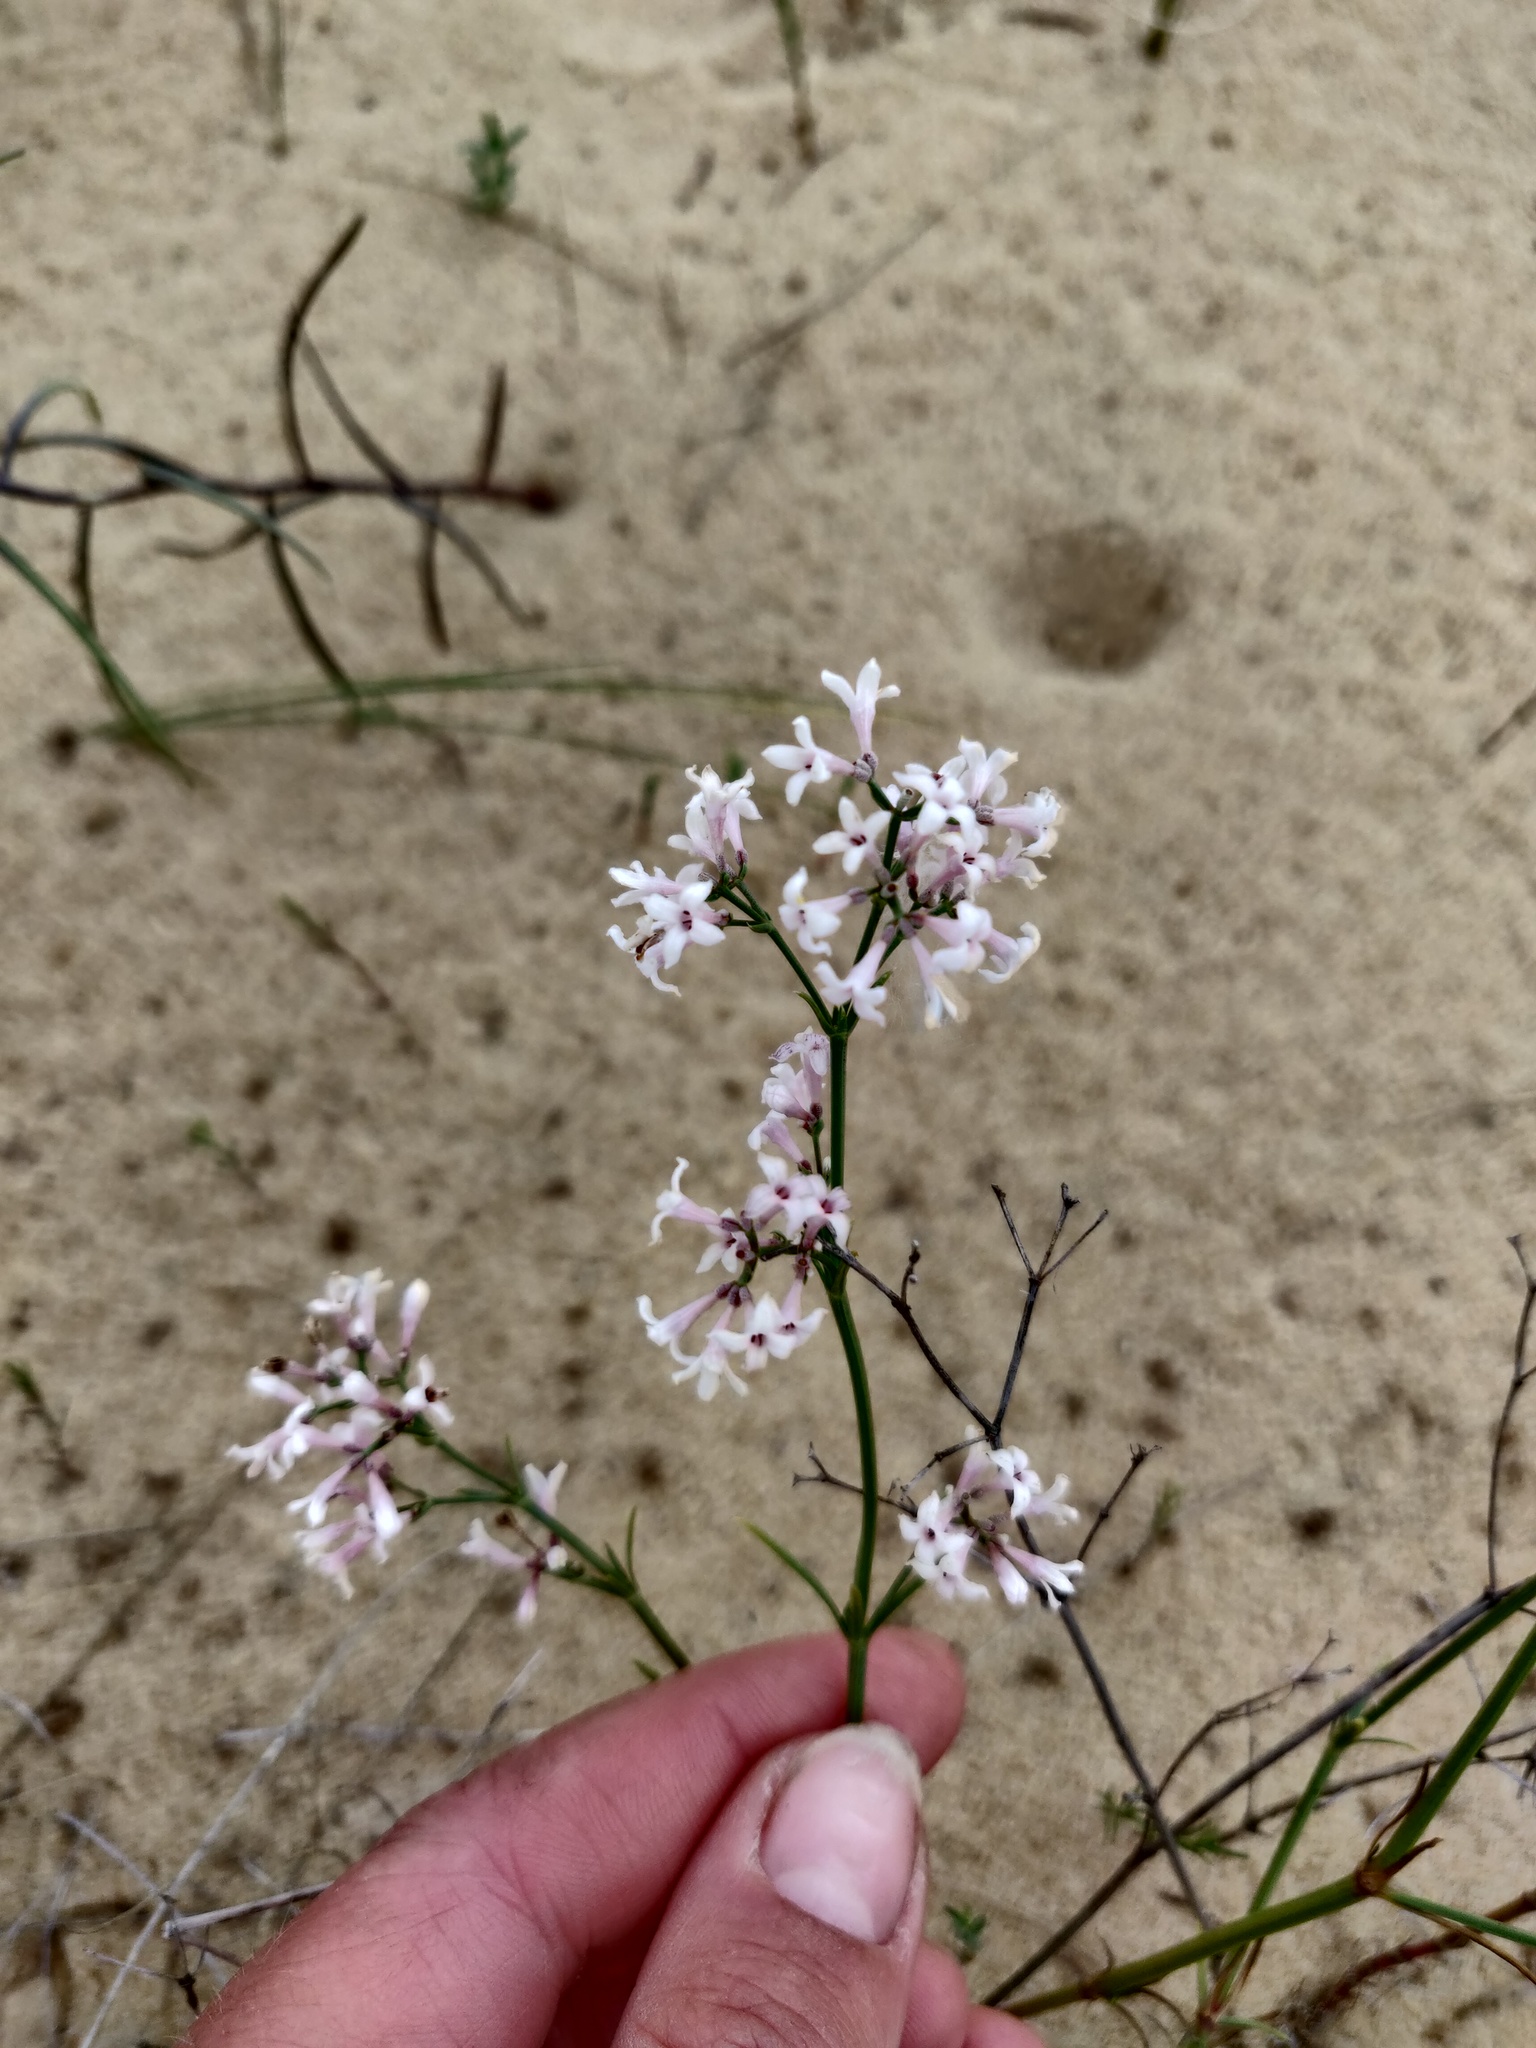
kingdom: Plantae
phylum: Tracheophyta
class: Magnoliopsida
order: Gentianales
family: Rubiaceae
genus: Cynanchica
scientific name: Cynanchica graveolens
